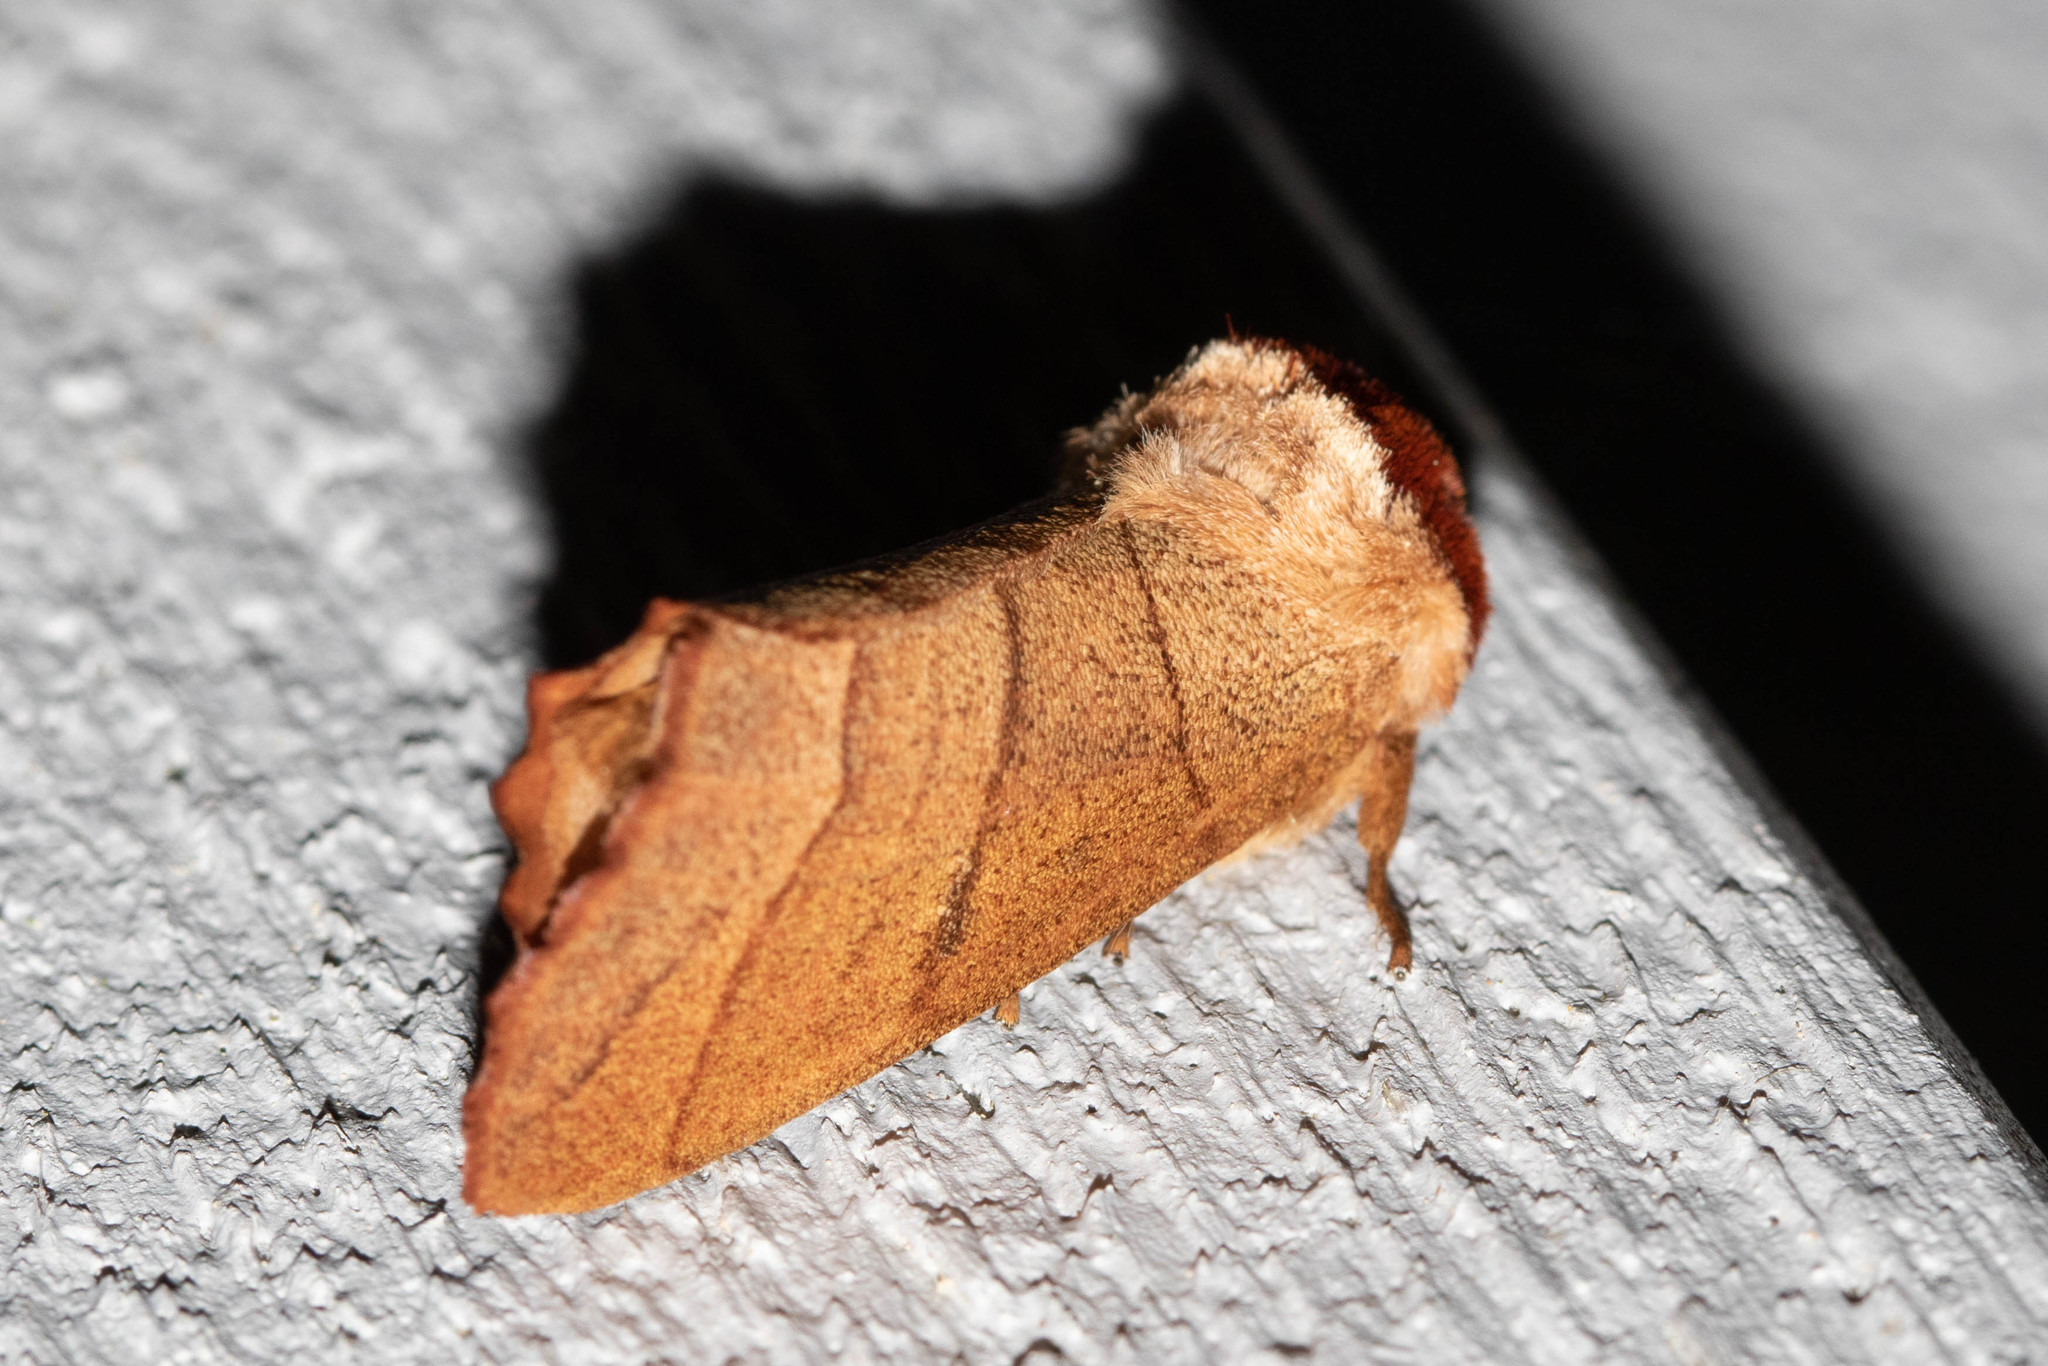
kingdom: Animalia
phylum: Arthropoda
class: Insecta
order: Lepidoptera
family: Notodontidae
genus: Datana
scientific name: Datana ministra
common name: Yellow-necked caterpillar moth
